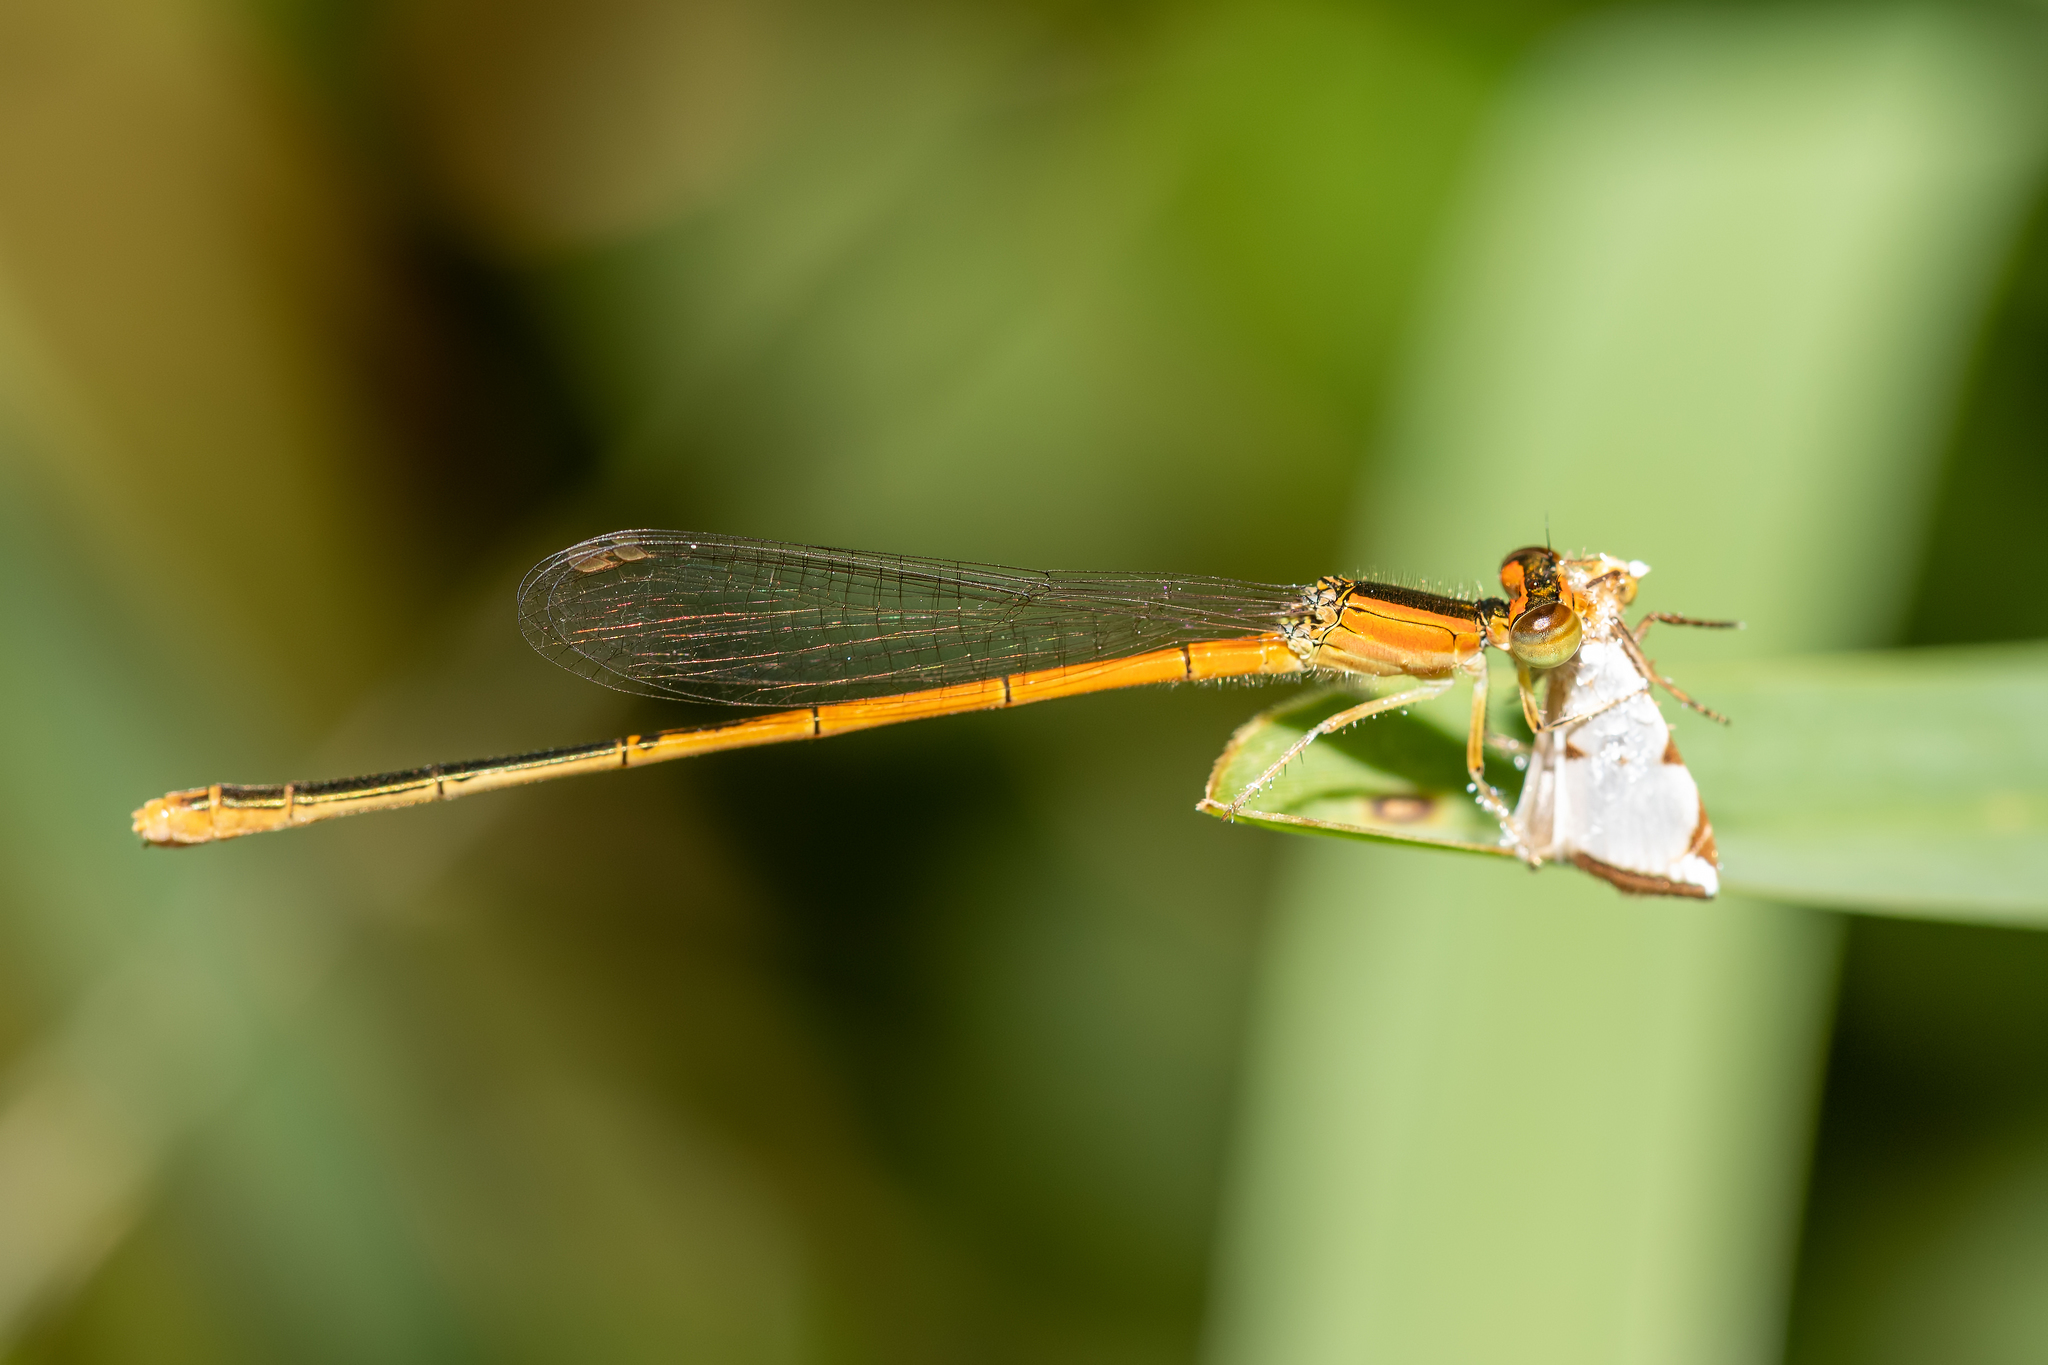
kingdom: Animalia
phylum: Arthropoda
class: Insecta
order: Odonata
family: Coenagrionidae
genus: Ischnura
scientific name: Ischnura hastata
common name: Citrine forktail
